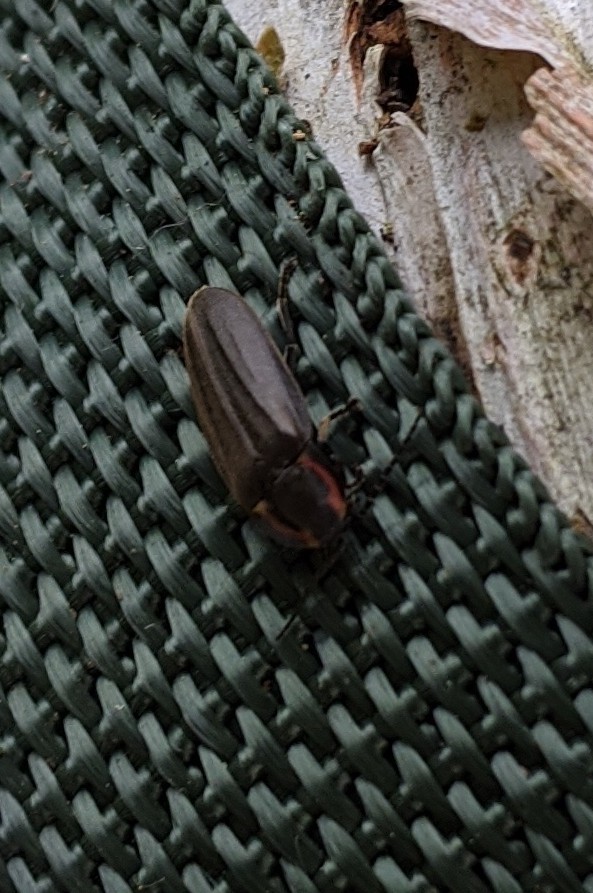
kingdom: Animalia
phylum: Arthropoda
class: Insecta
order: Coleoptera
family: Lampyridae
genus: Photinus
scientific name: Photinus corrusca
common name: Winter firefly
